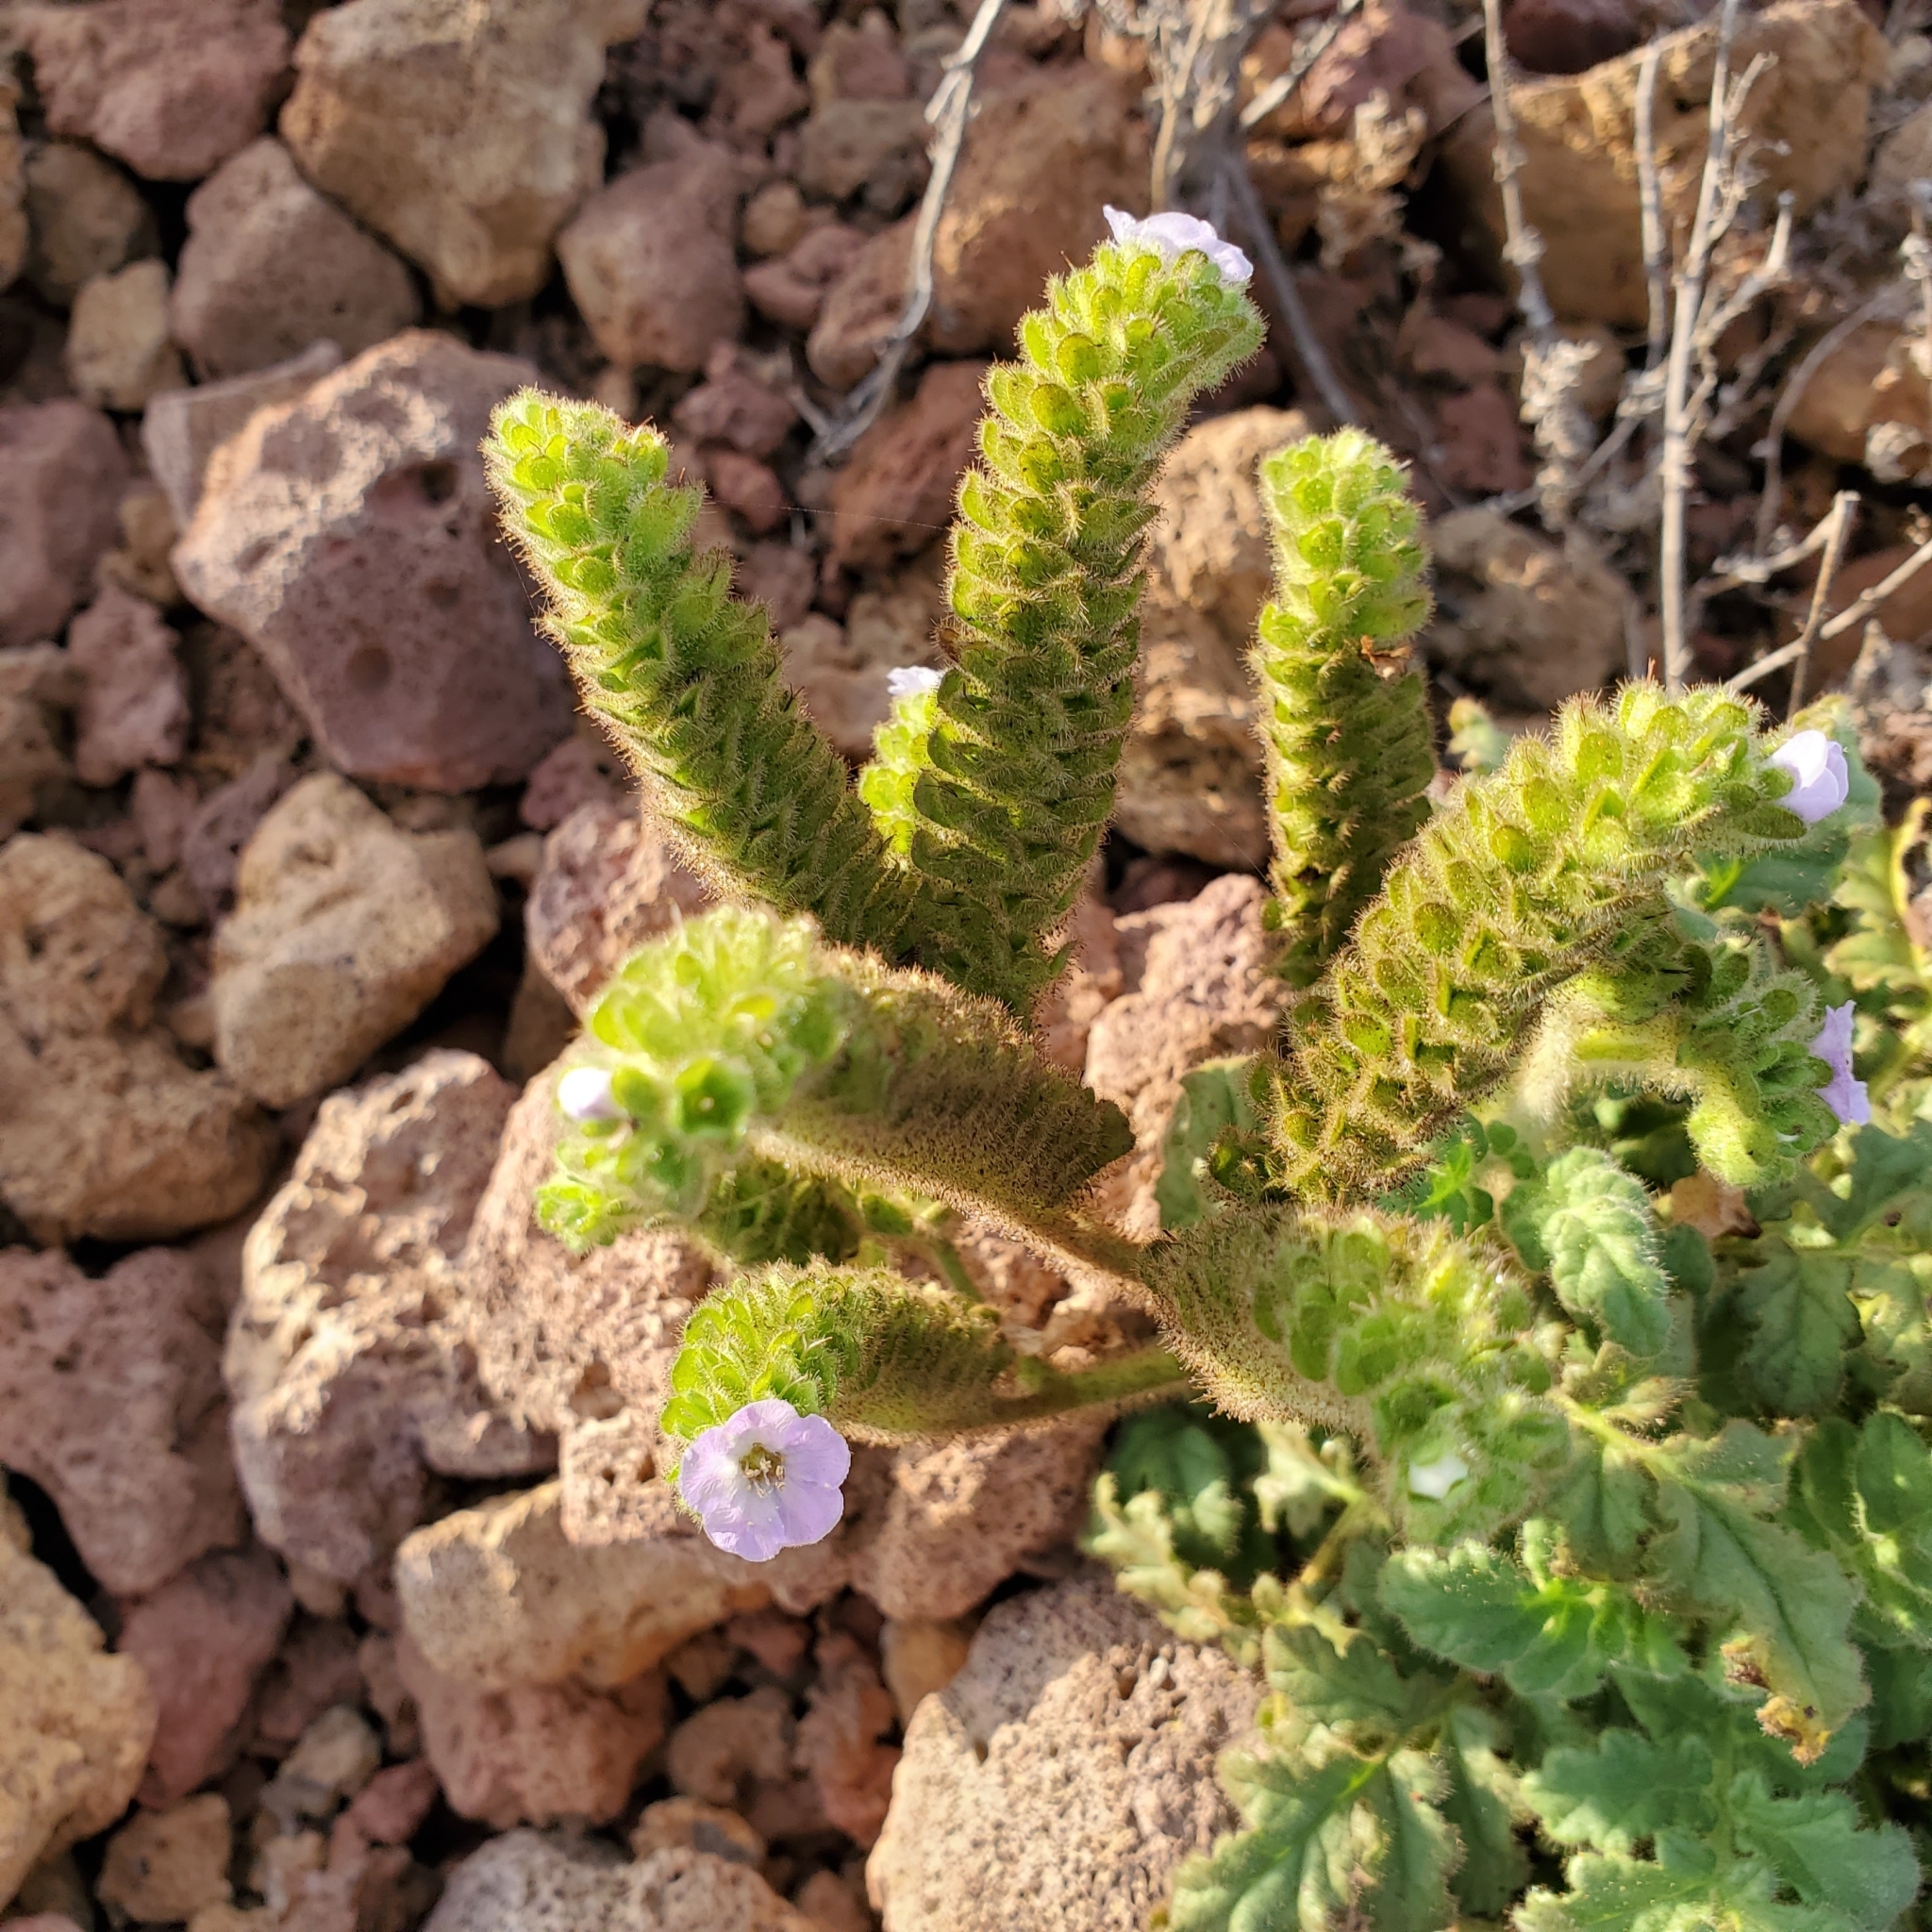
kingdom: Plantae
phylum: Tracheophyta
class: Magnoliopsida
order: Boraginales
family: Hydrophyllaceae
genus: Phacelia
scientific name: Phacelia ixodes
